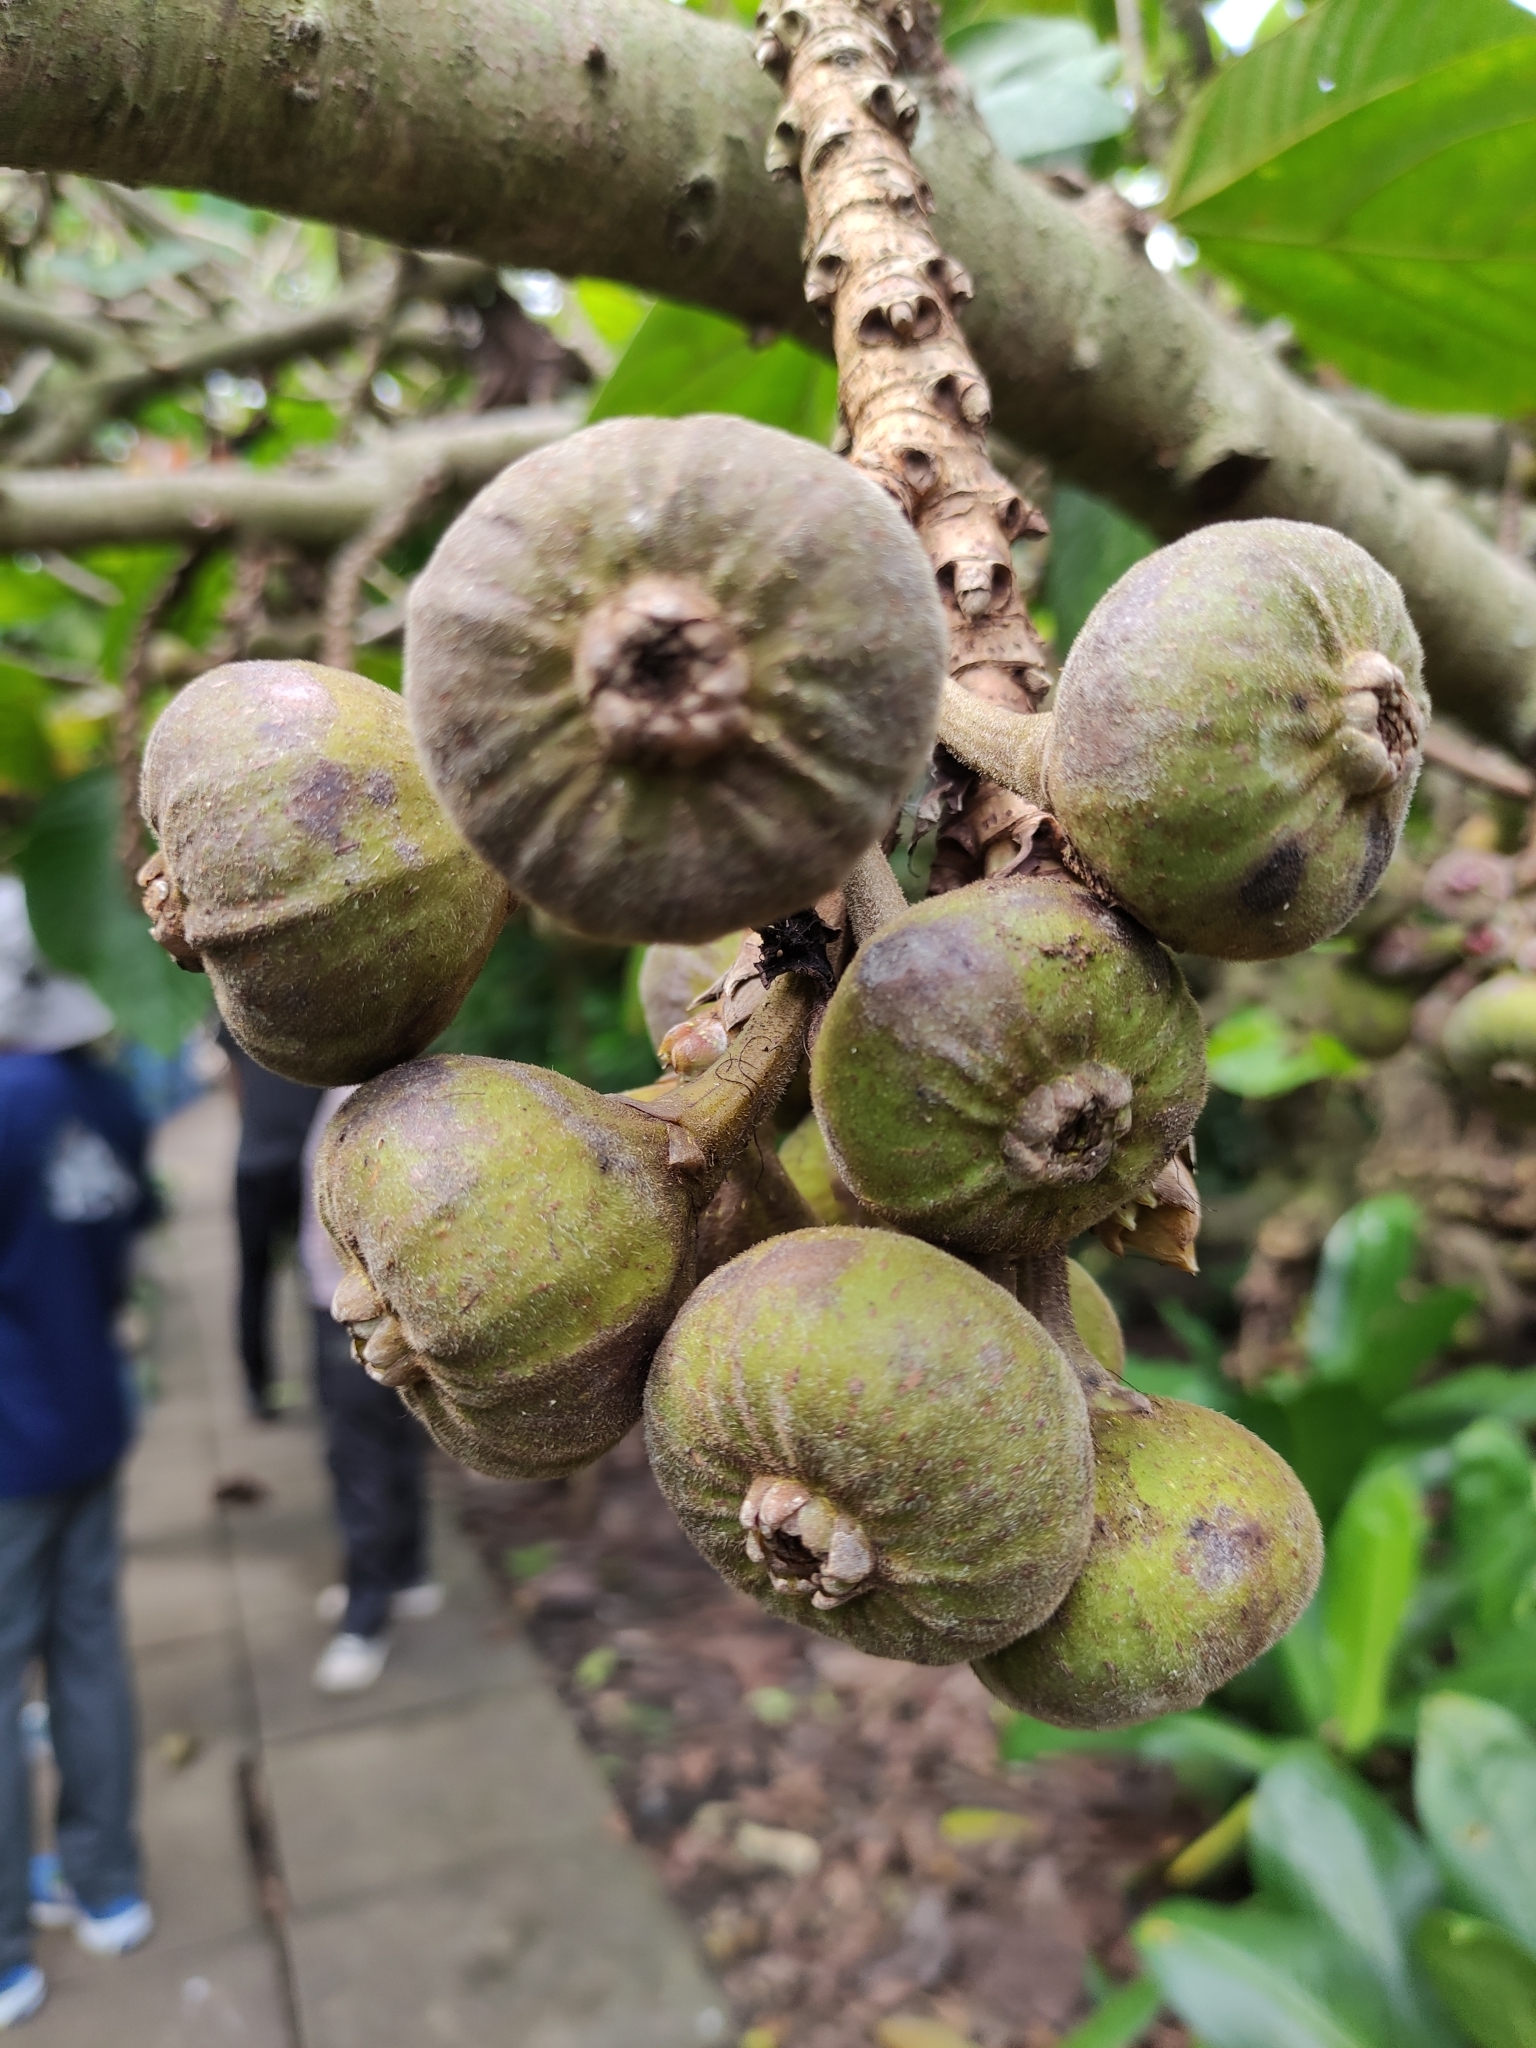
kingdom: Plantae
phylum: Tracheophyta
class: Magnoliopsida
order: Rosales
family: Moraceae
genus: Ficus
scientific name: Ficus auriculata
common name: Roxburgh fig
